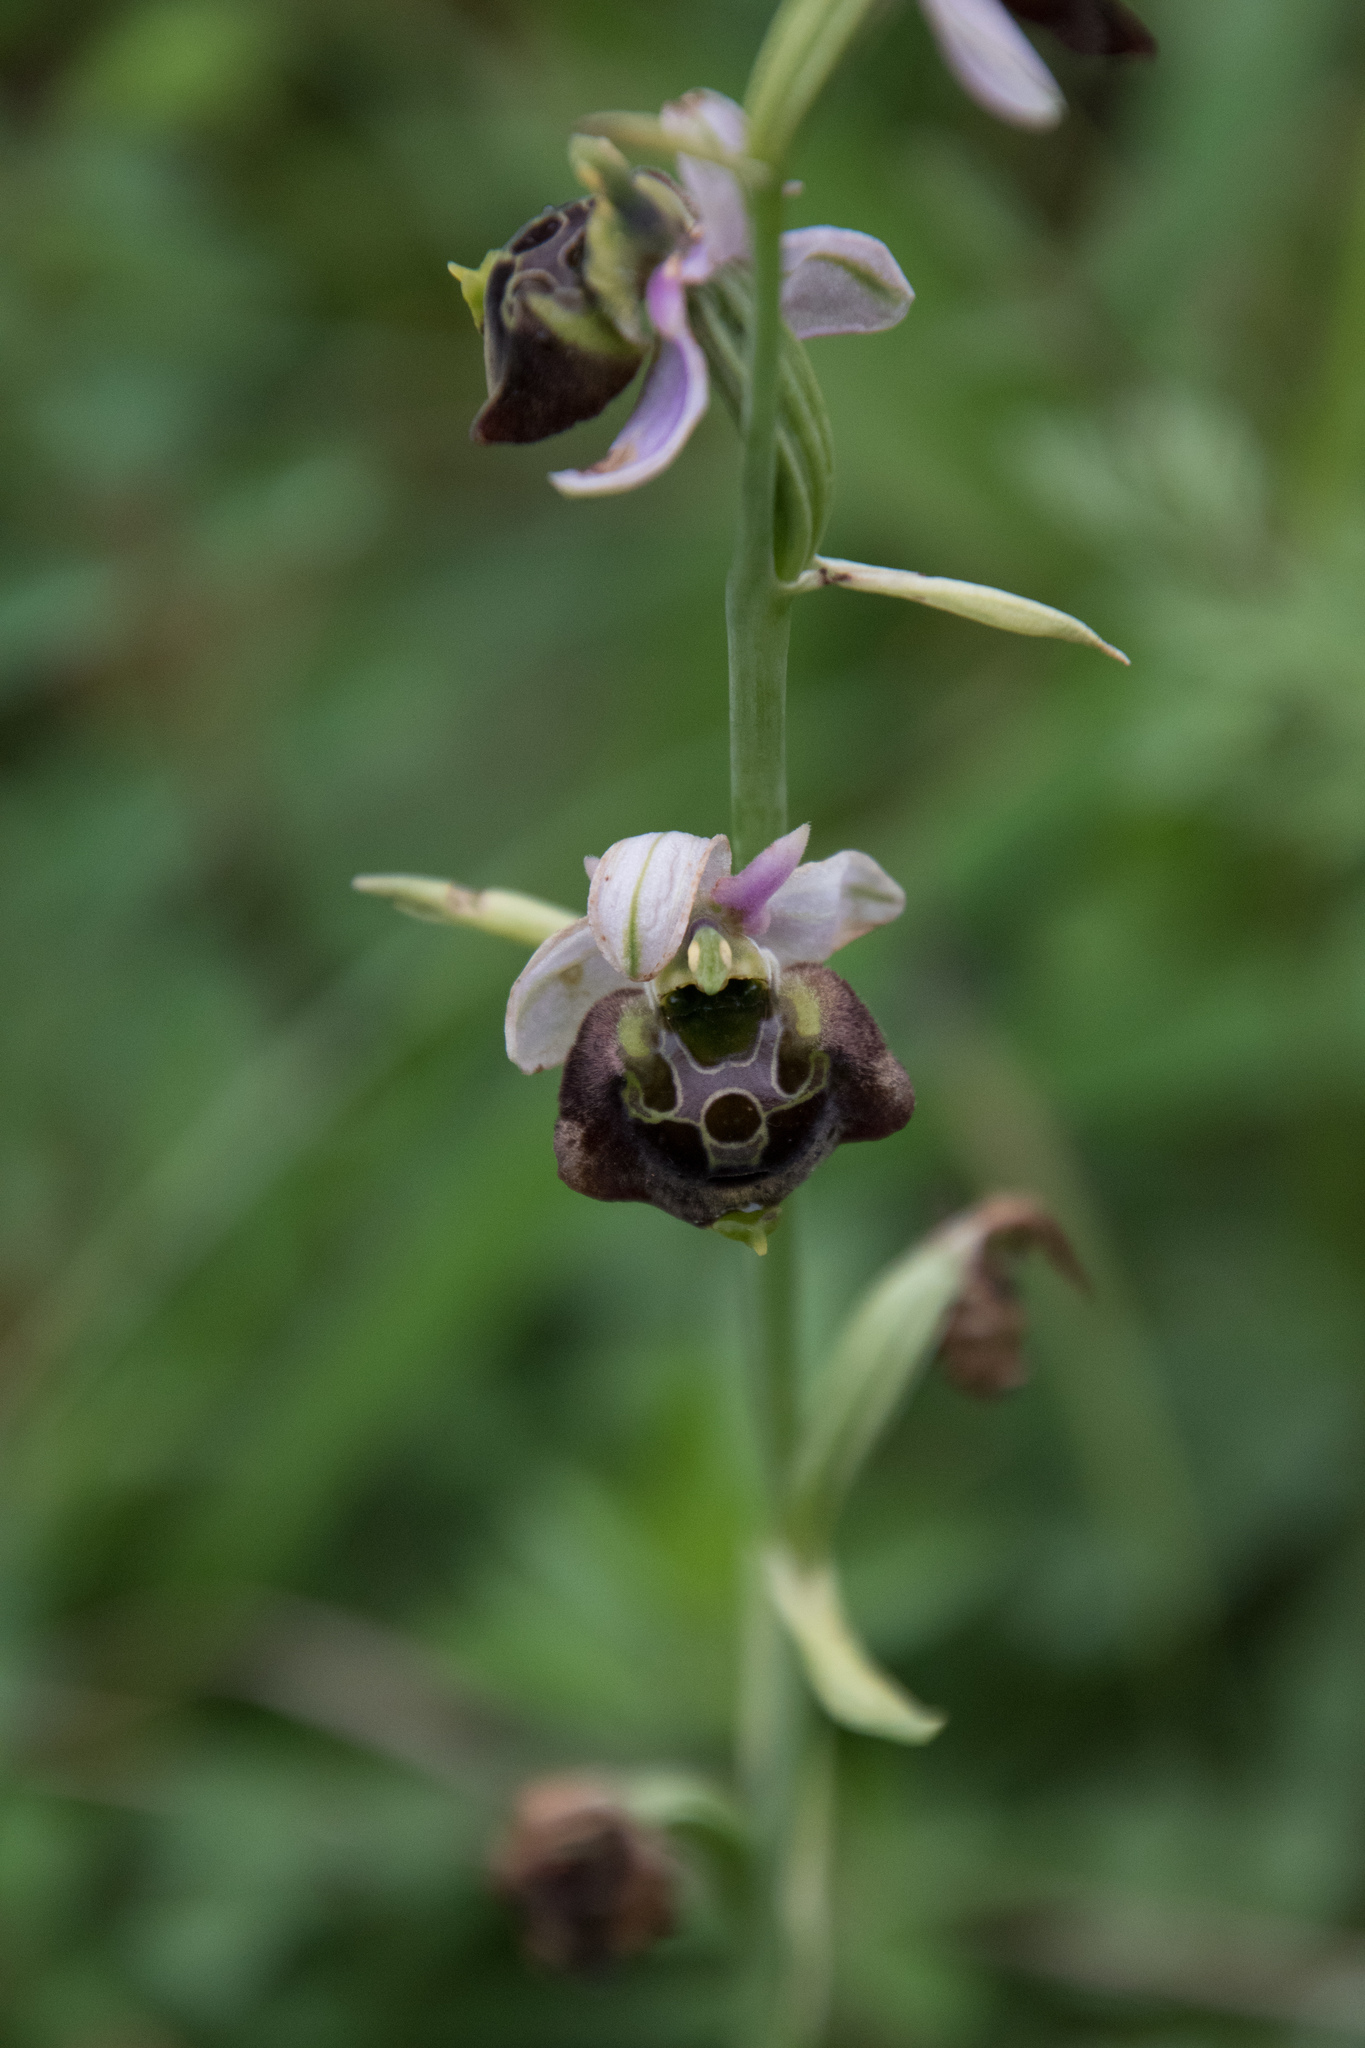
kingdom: Plantae
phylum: Tracheophyta
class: Liliopsida
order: Asparagales
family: Orchidaceae
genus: Ophrys
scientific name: Ophrys holosericea
